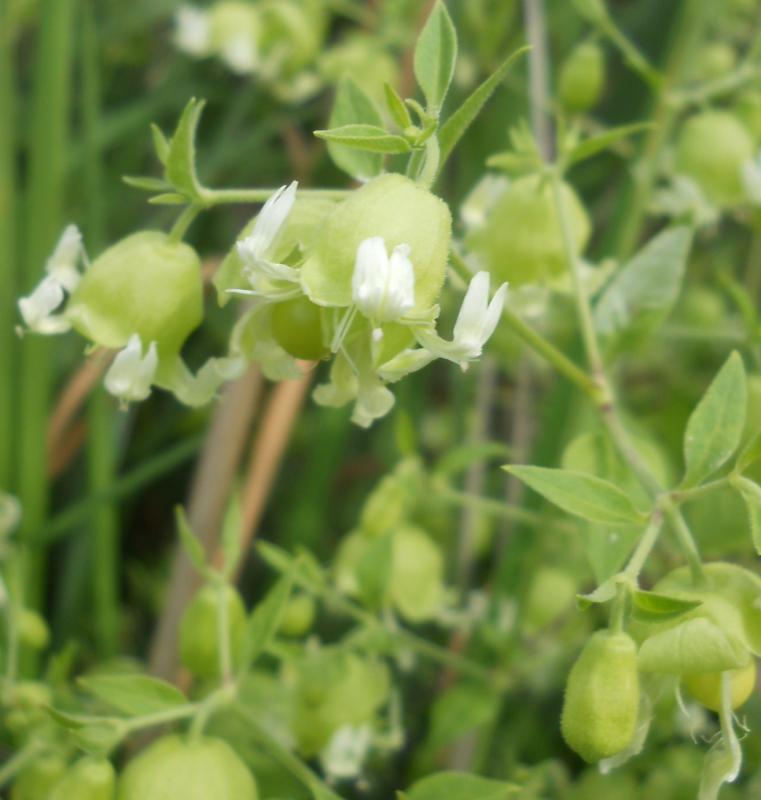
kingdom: Plantae
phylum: Tracheophyta
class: Magnoliopsida
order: Caryophyllales
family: Caryophyllaceae
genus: Silene
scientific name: Silene baccifera
